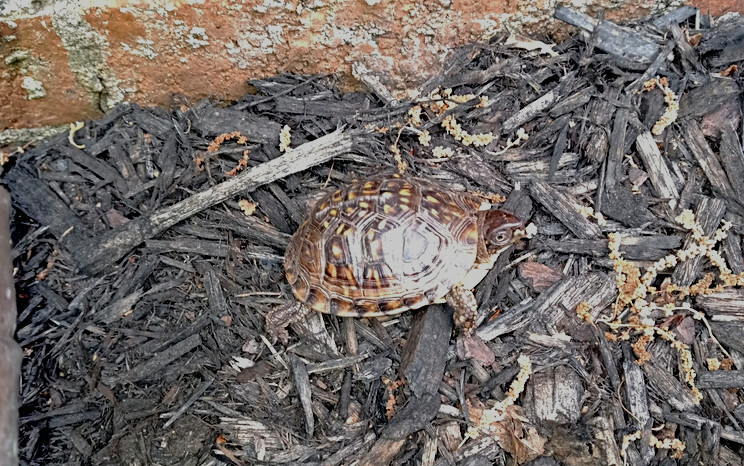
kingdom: Animalia
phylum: Chordata
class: Testudines
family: Emydidae
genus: Terrapene
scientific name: Terrapene carolina
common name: Common box turtle
